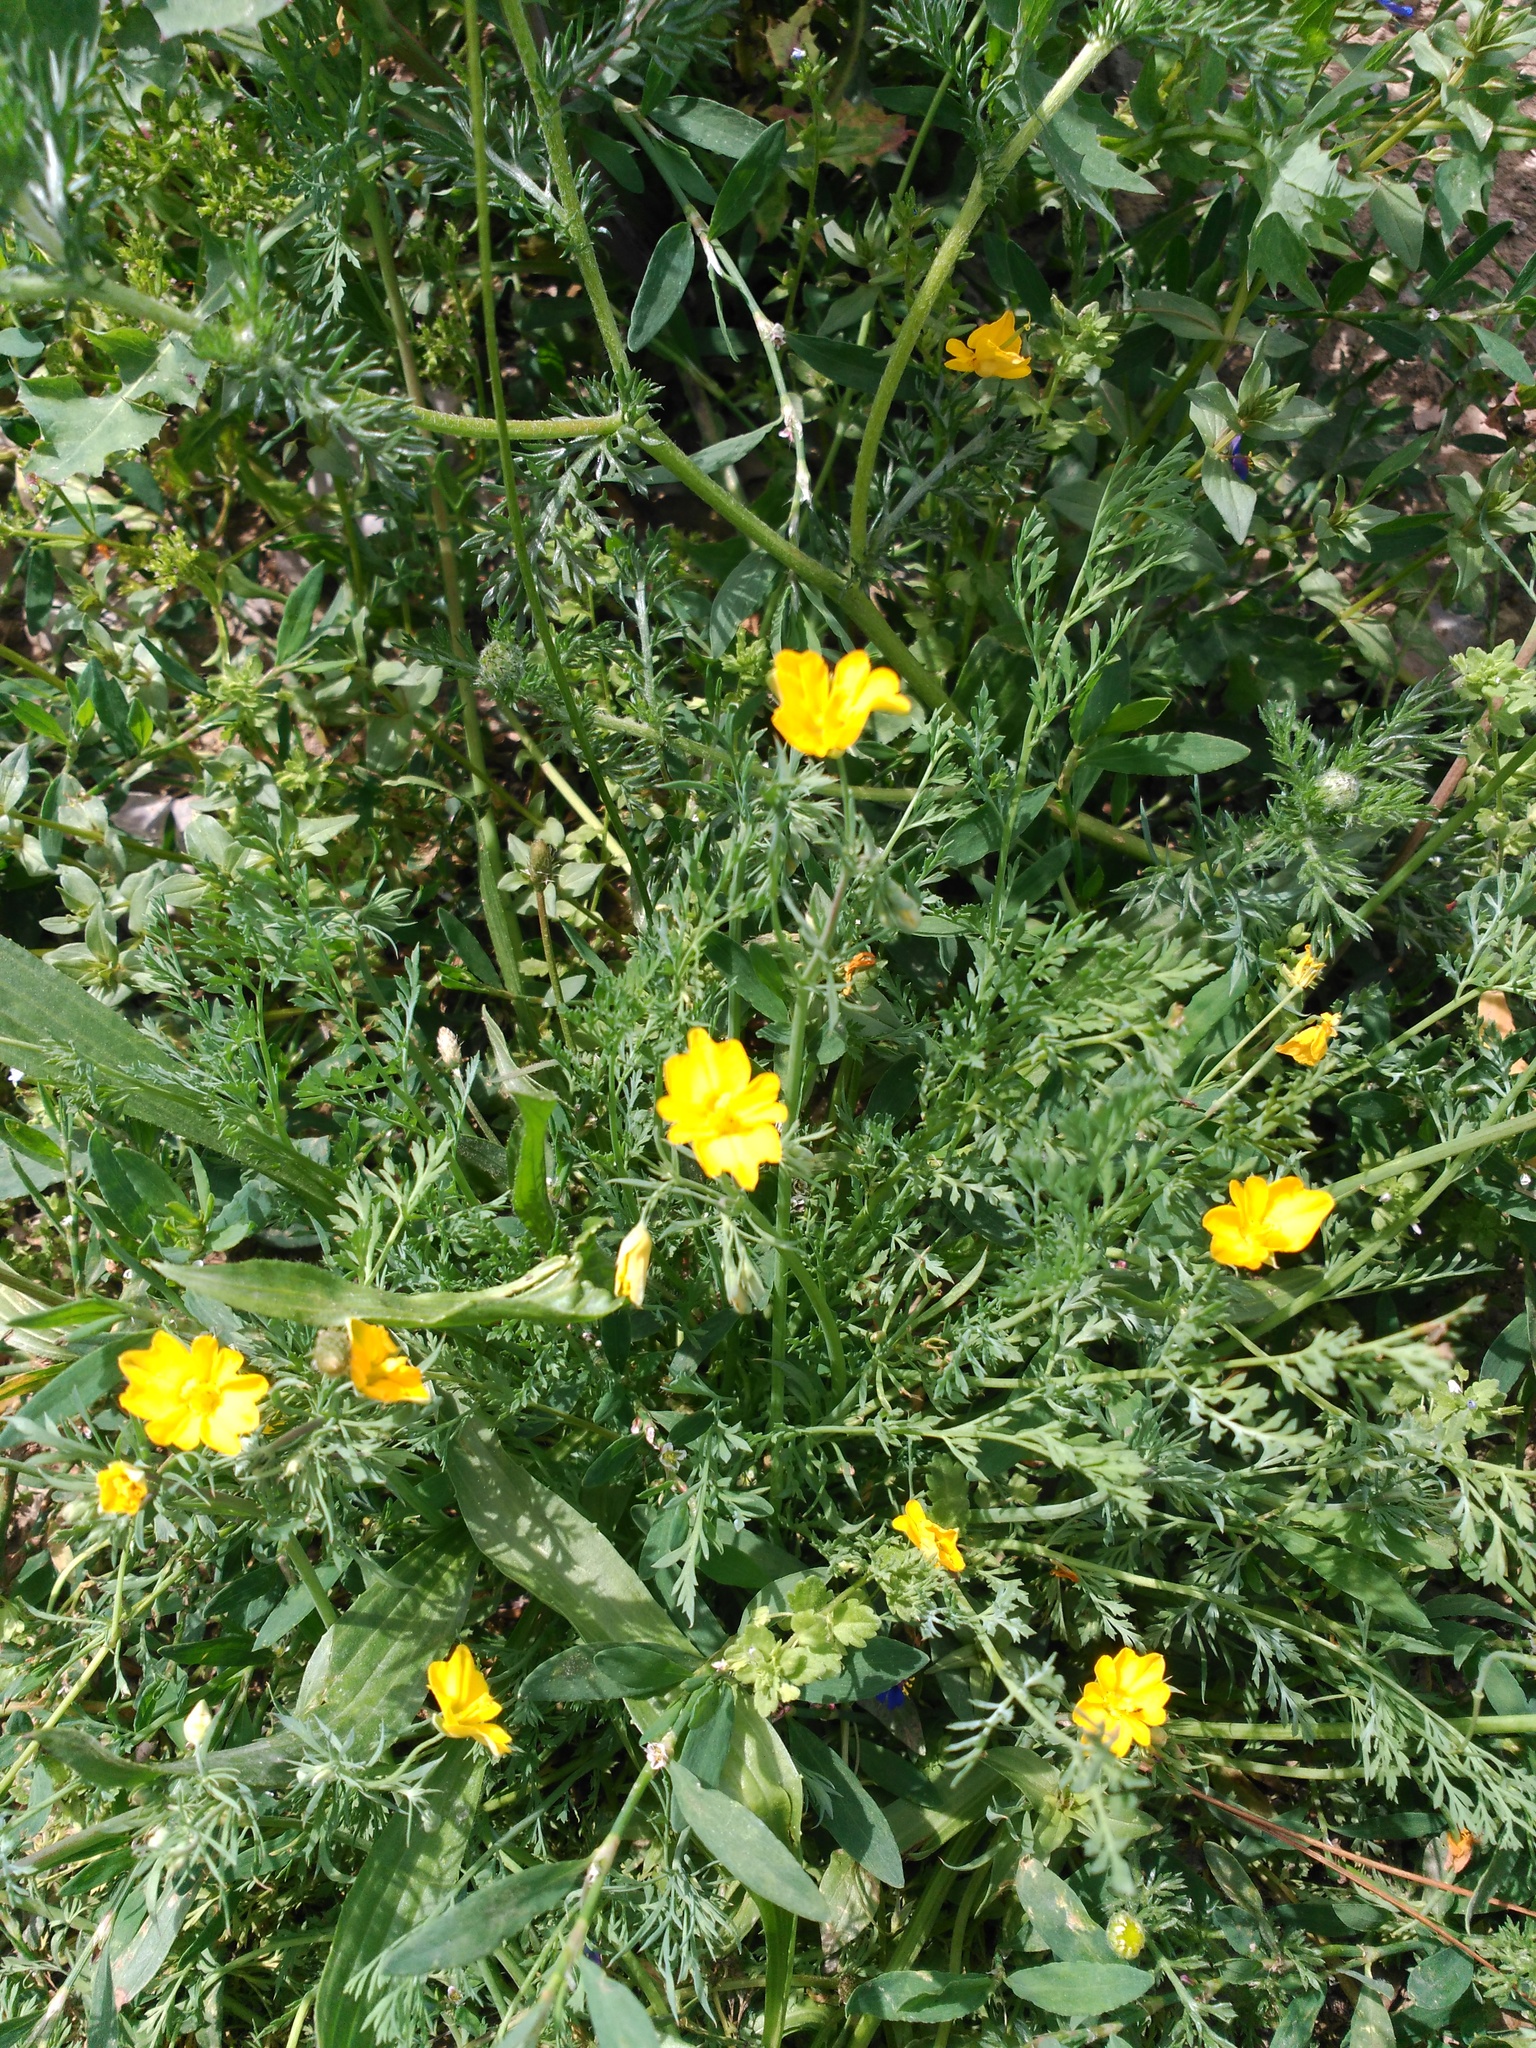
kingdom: Plantae
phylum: Tracheophyta
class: Magnoliopsida
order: Ranunculales
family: Papaveraceae
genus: Hypecoum
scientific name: Hypecoum procumbens
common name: Procumbent hypecoum
